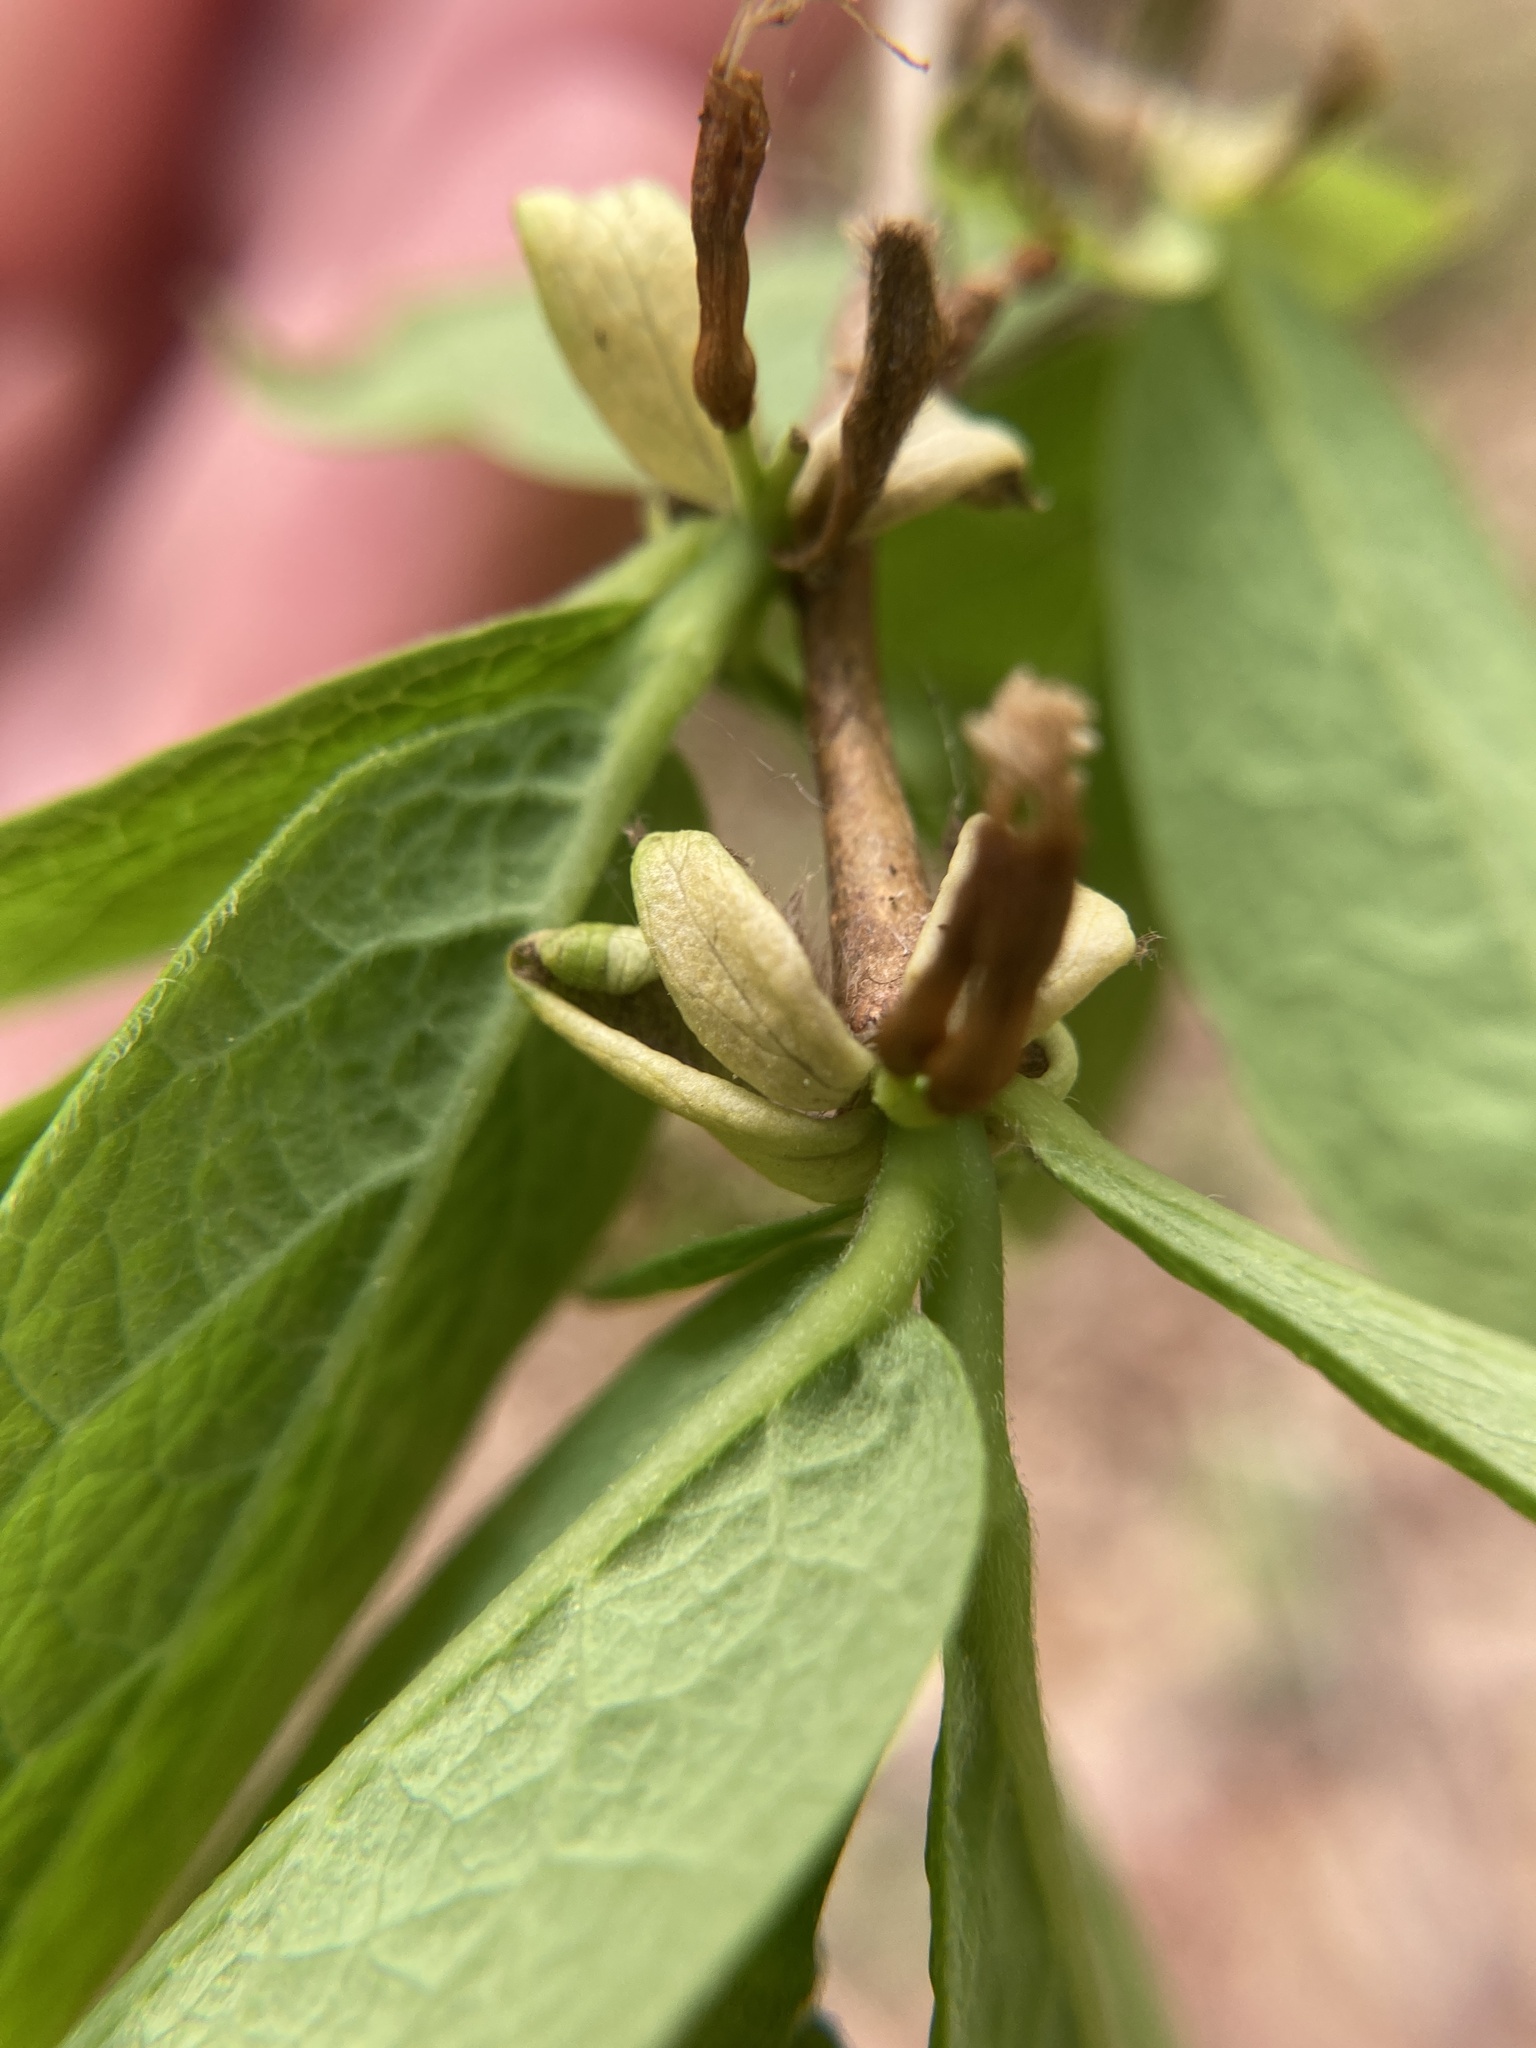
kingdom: Plantae
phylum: Tracheophyta
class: Magnoliopsida
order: Malvales
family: Thymelaeaceae
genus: Dirca
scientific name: Dirca palustris
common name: Leatherwood
